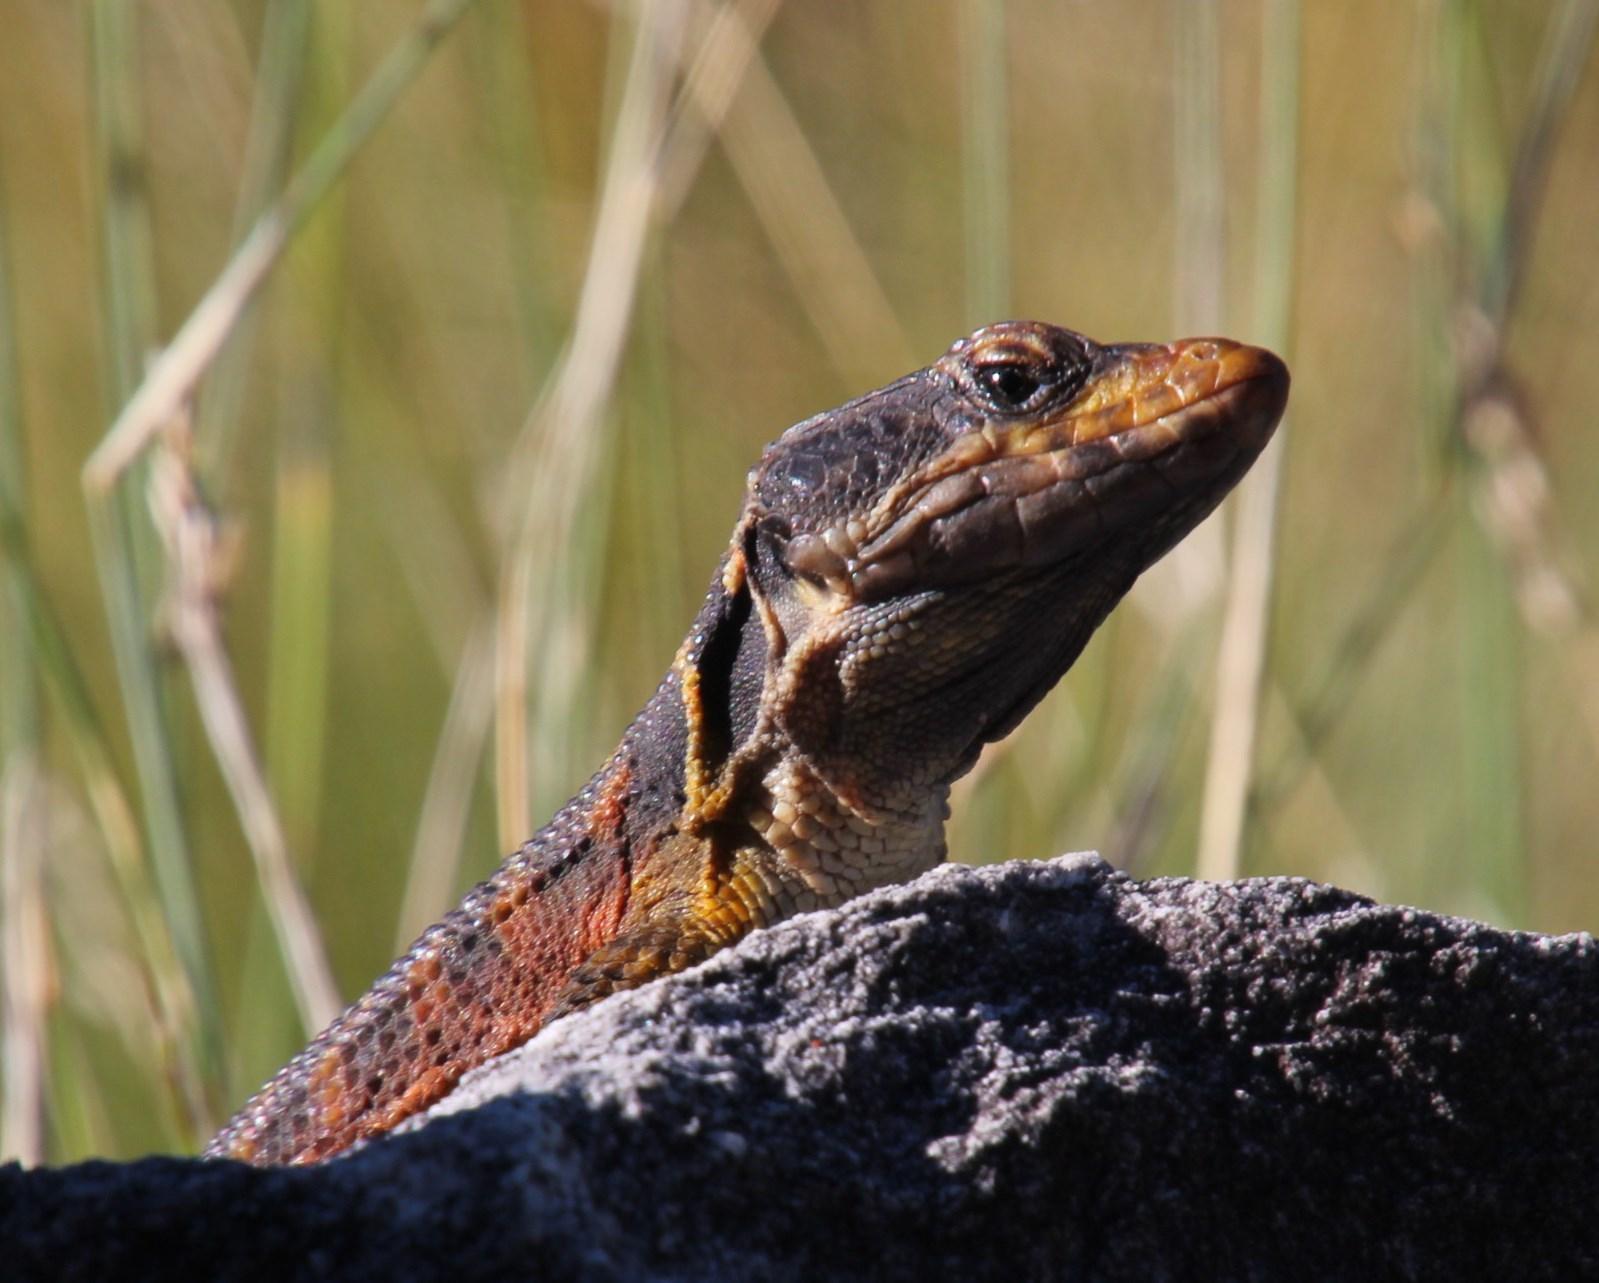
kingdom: Animalia
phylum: Chordata
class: Squamata
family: Cordylidae
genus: Pseudocordylus
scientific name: Pseudocordylus microlepidotus
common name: Cape crag lizard
